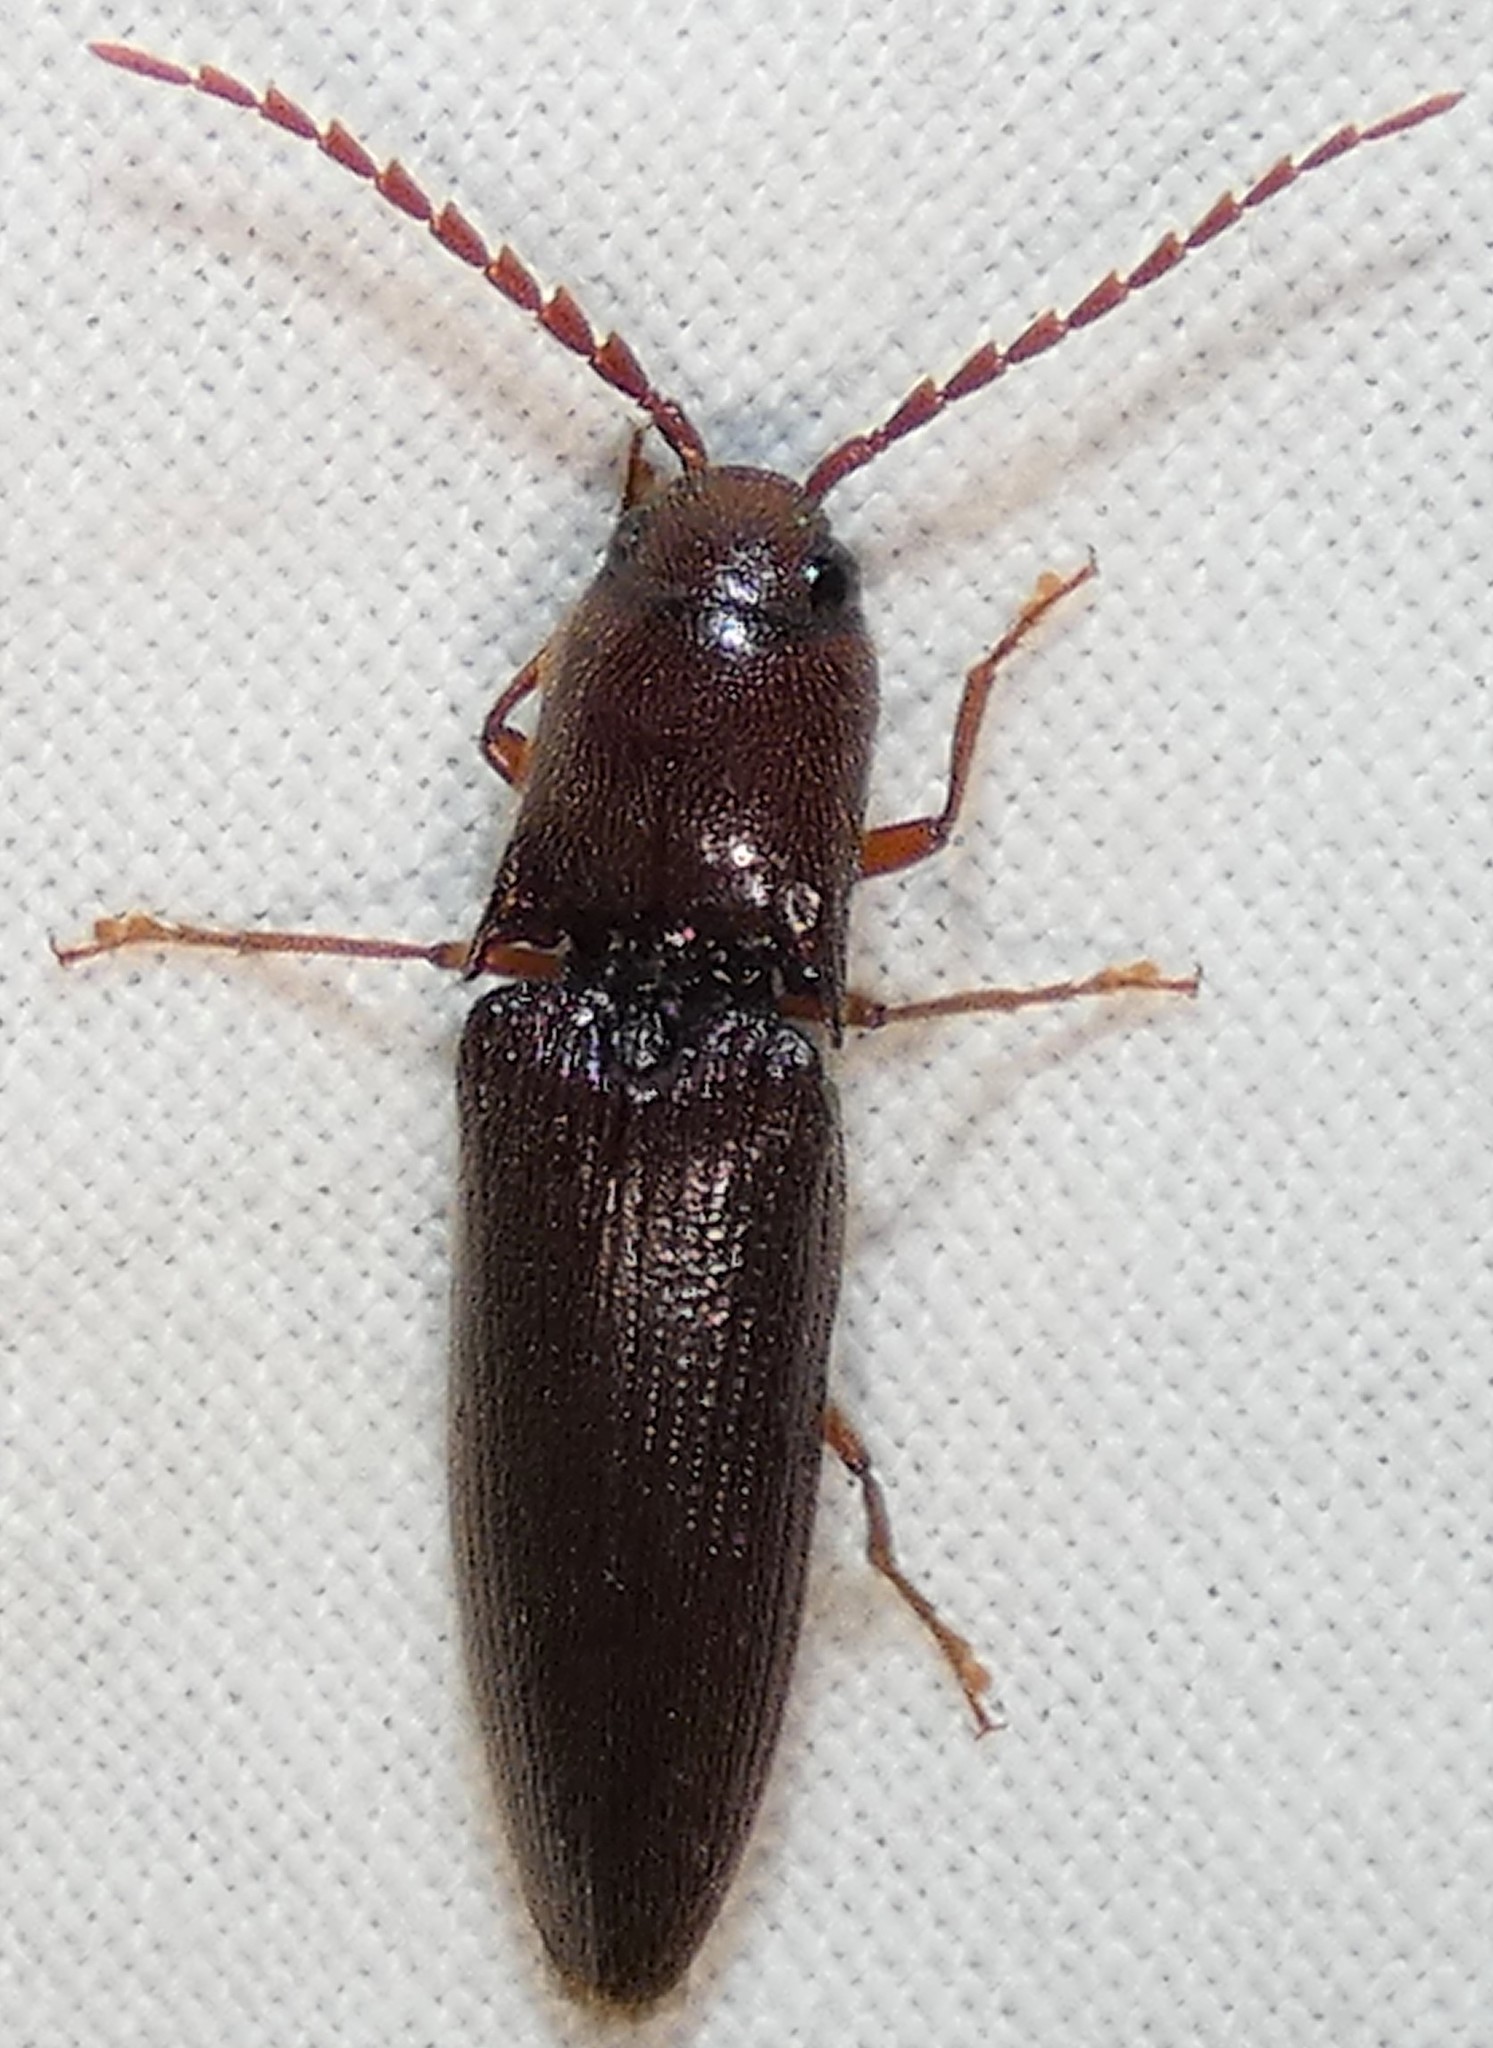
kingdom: Animalia
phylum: Arthropoda
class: Insecta
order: Coleoptera
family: Elateridae
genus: Dicrepidius
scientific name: Dicrepidius palmatus
